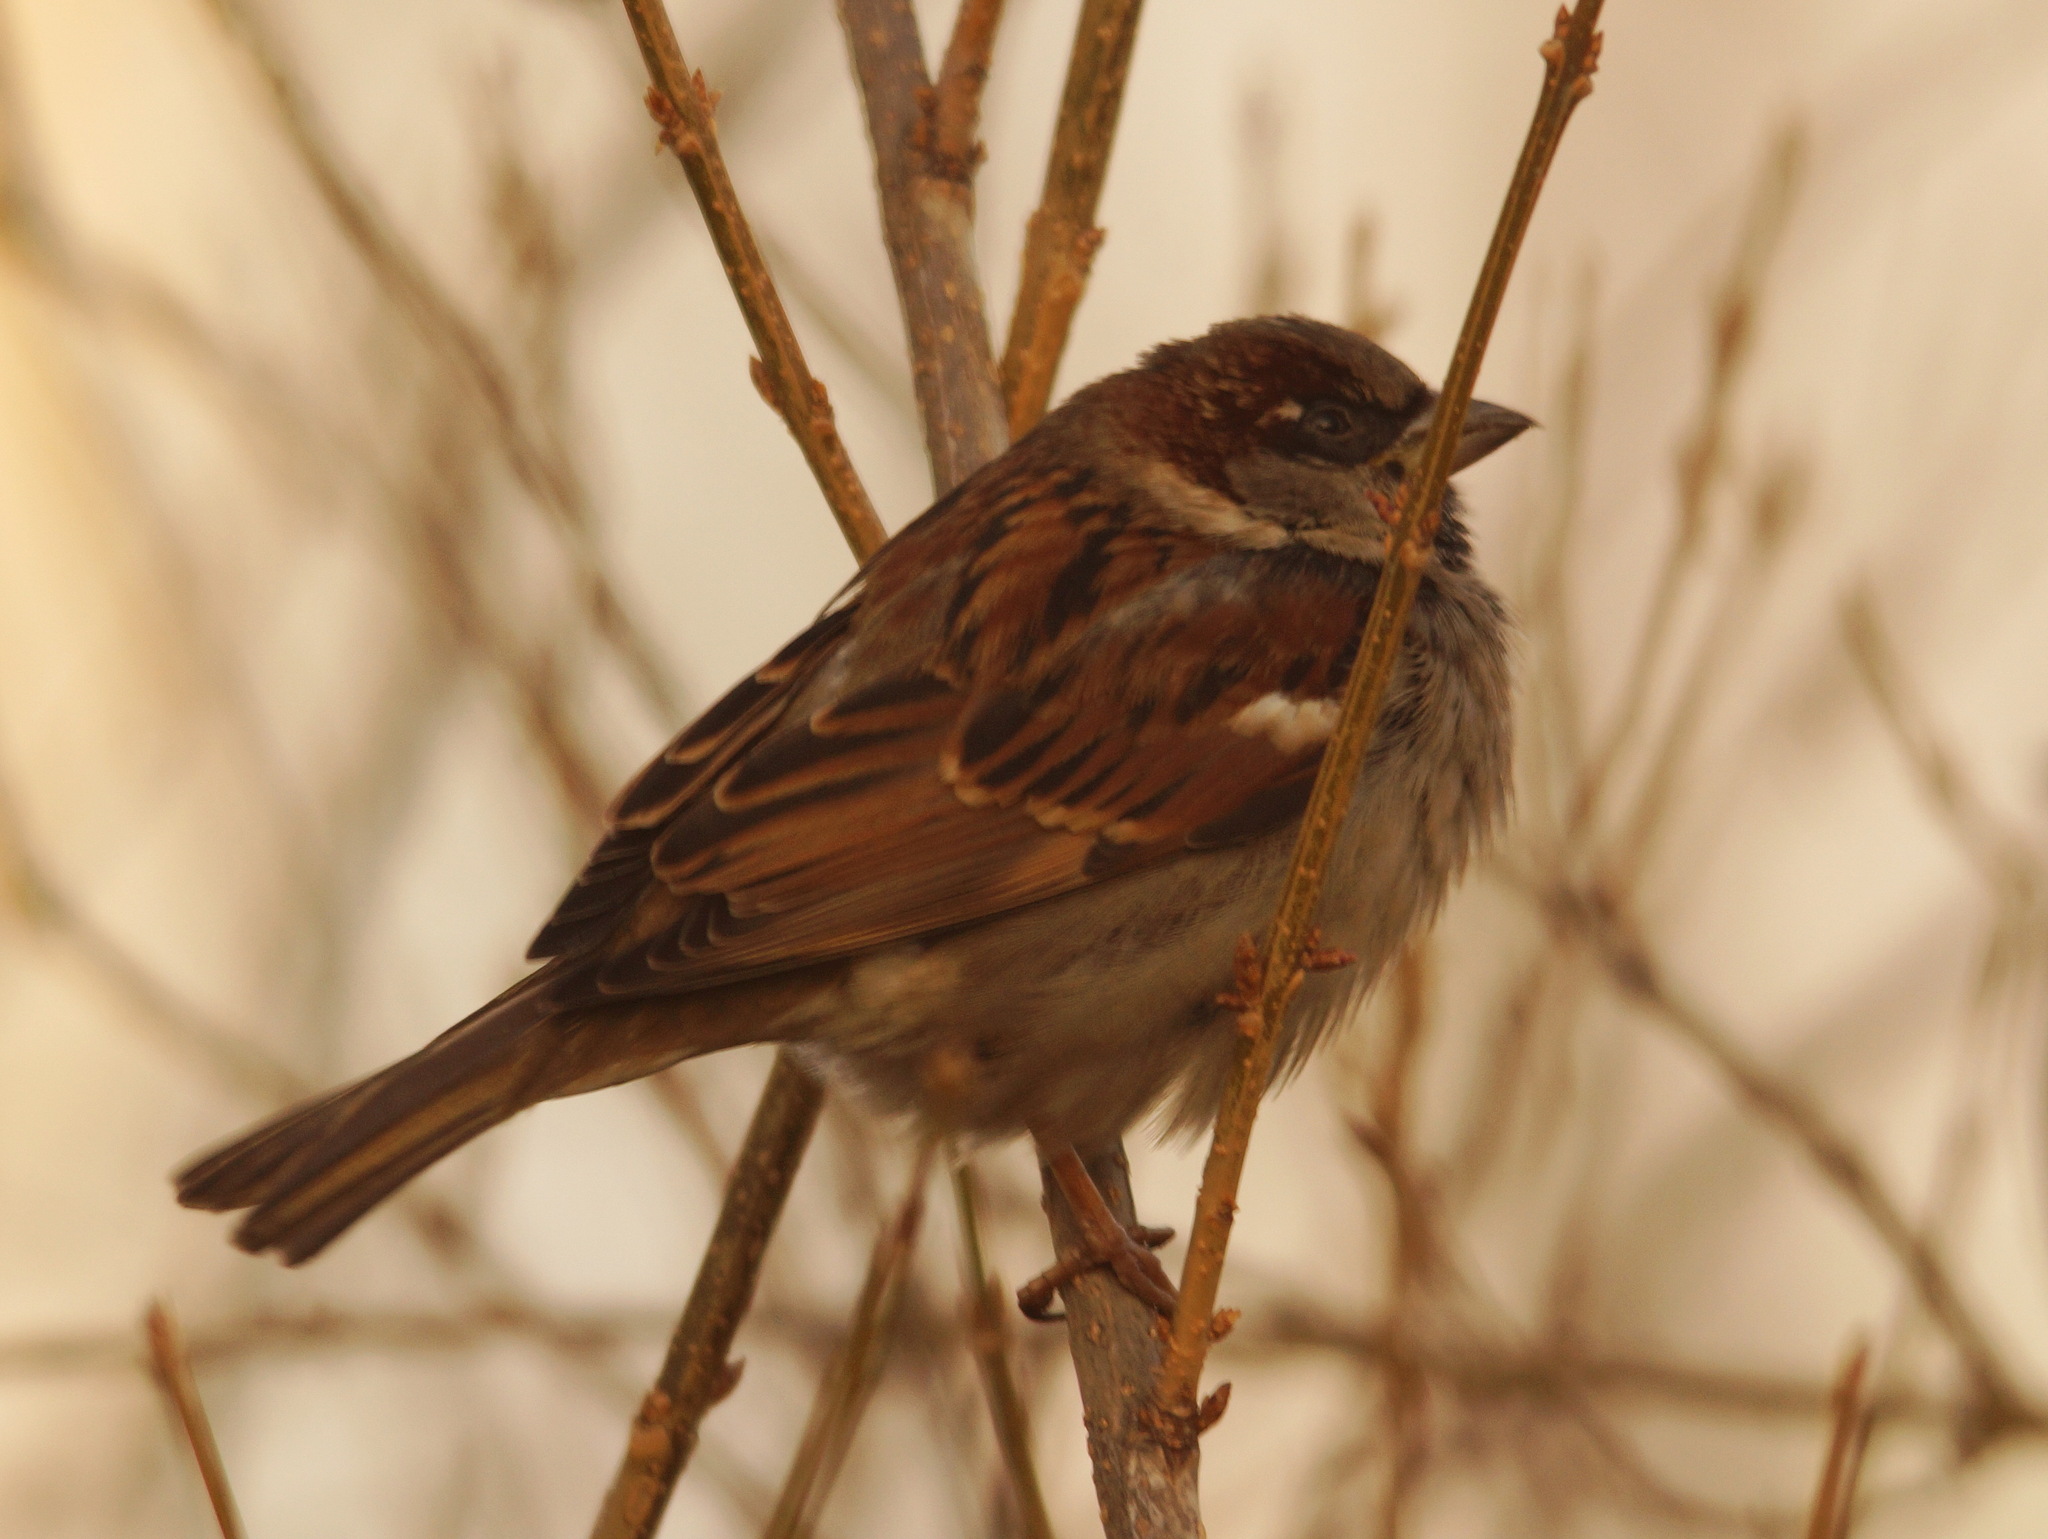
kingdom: Animalia
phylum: Chordata
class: Aves
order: Passeriformes
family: Passeridae
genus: Passer
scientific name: Passer domesticus
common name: House sparrow
